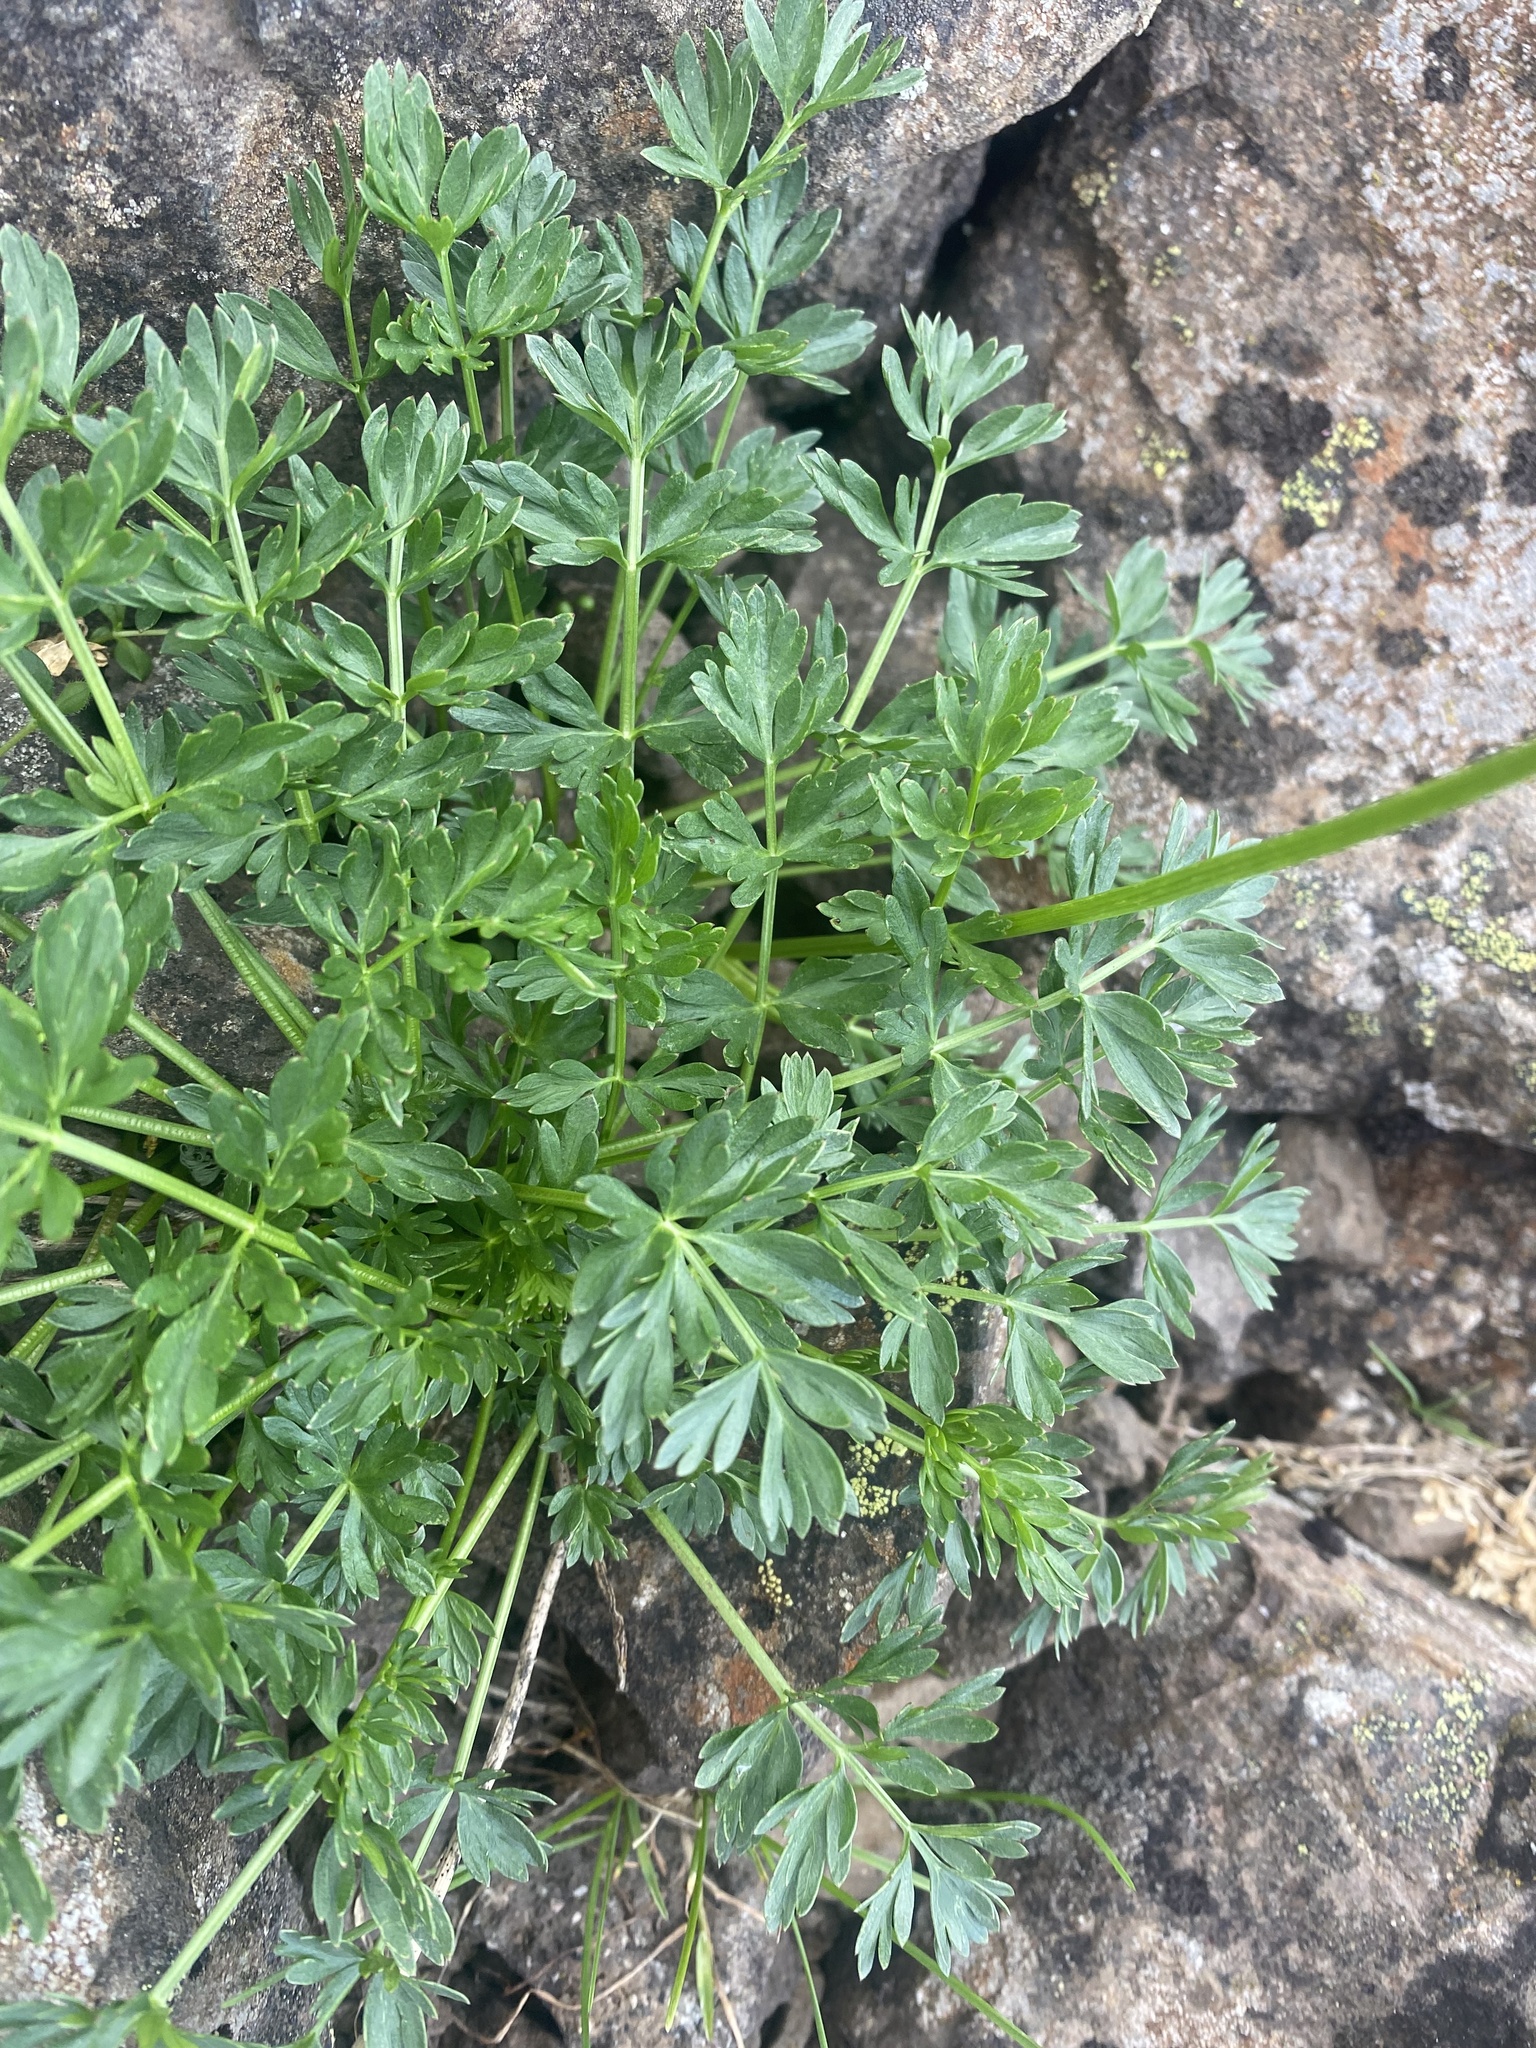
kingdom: Plantae
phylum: Tracheophyta
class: Magnoliopsida
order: Apiales
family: Apiaceae
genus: Pachypleurum
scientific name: Pachypleurum mutellinoides
